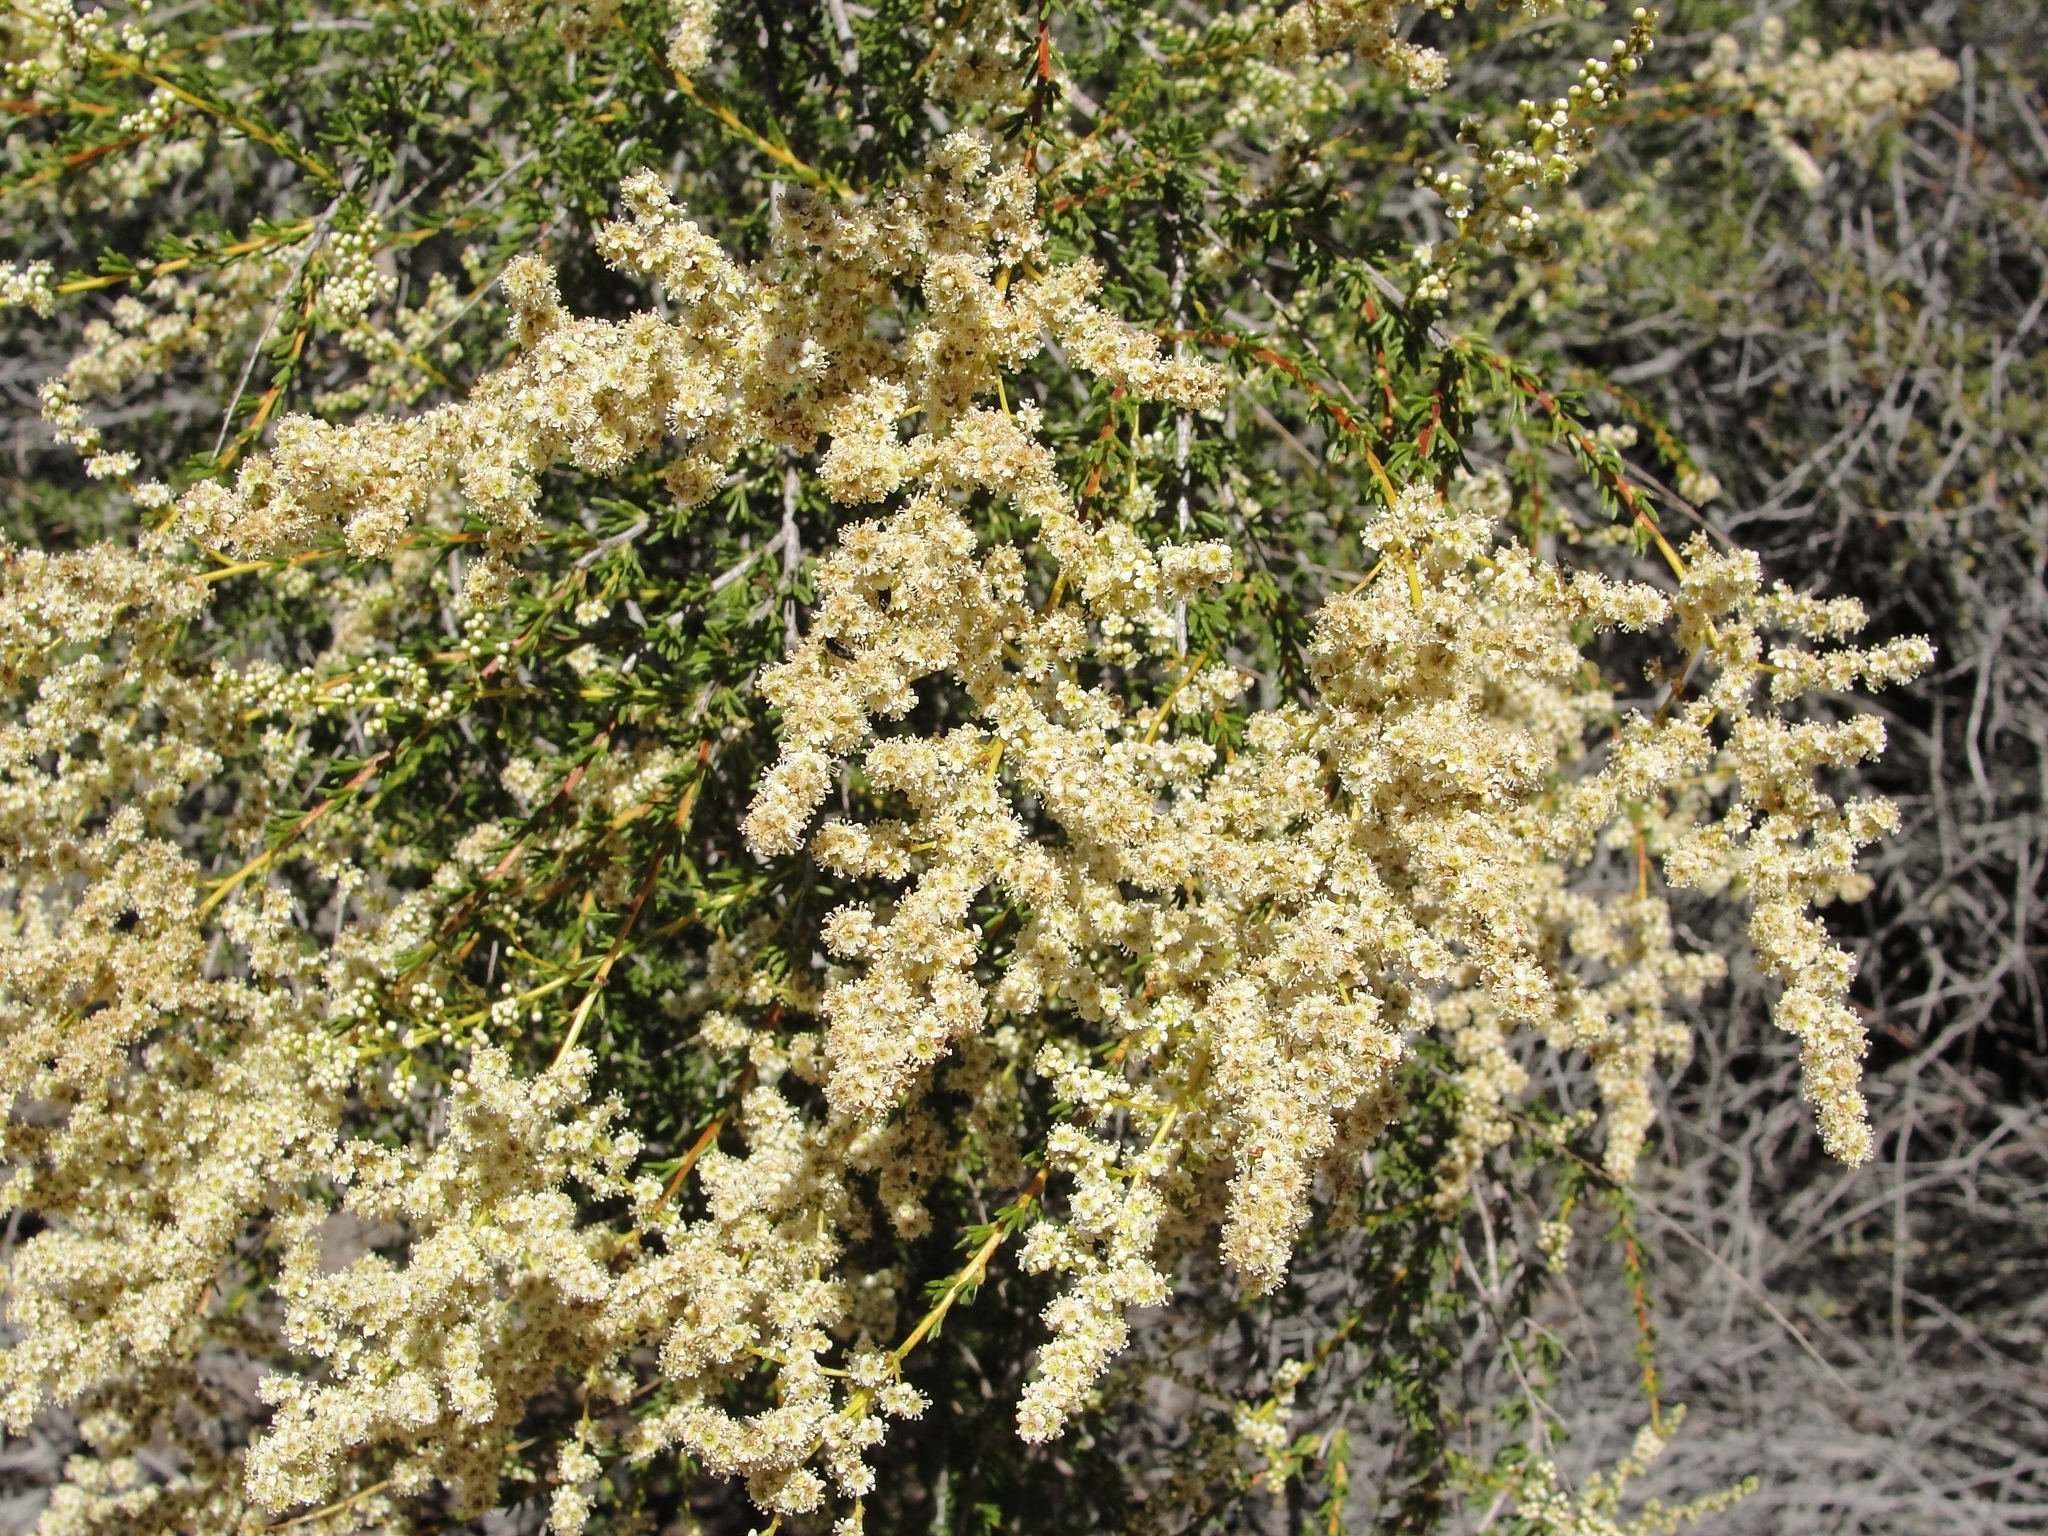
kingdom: Plantae
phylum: Tracheophyta
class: Magnoliopsida
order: Rosales
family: Rosaceae
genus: Adenostoma
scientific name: Adenostoma fasciculatum
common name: Chamise
